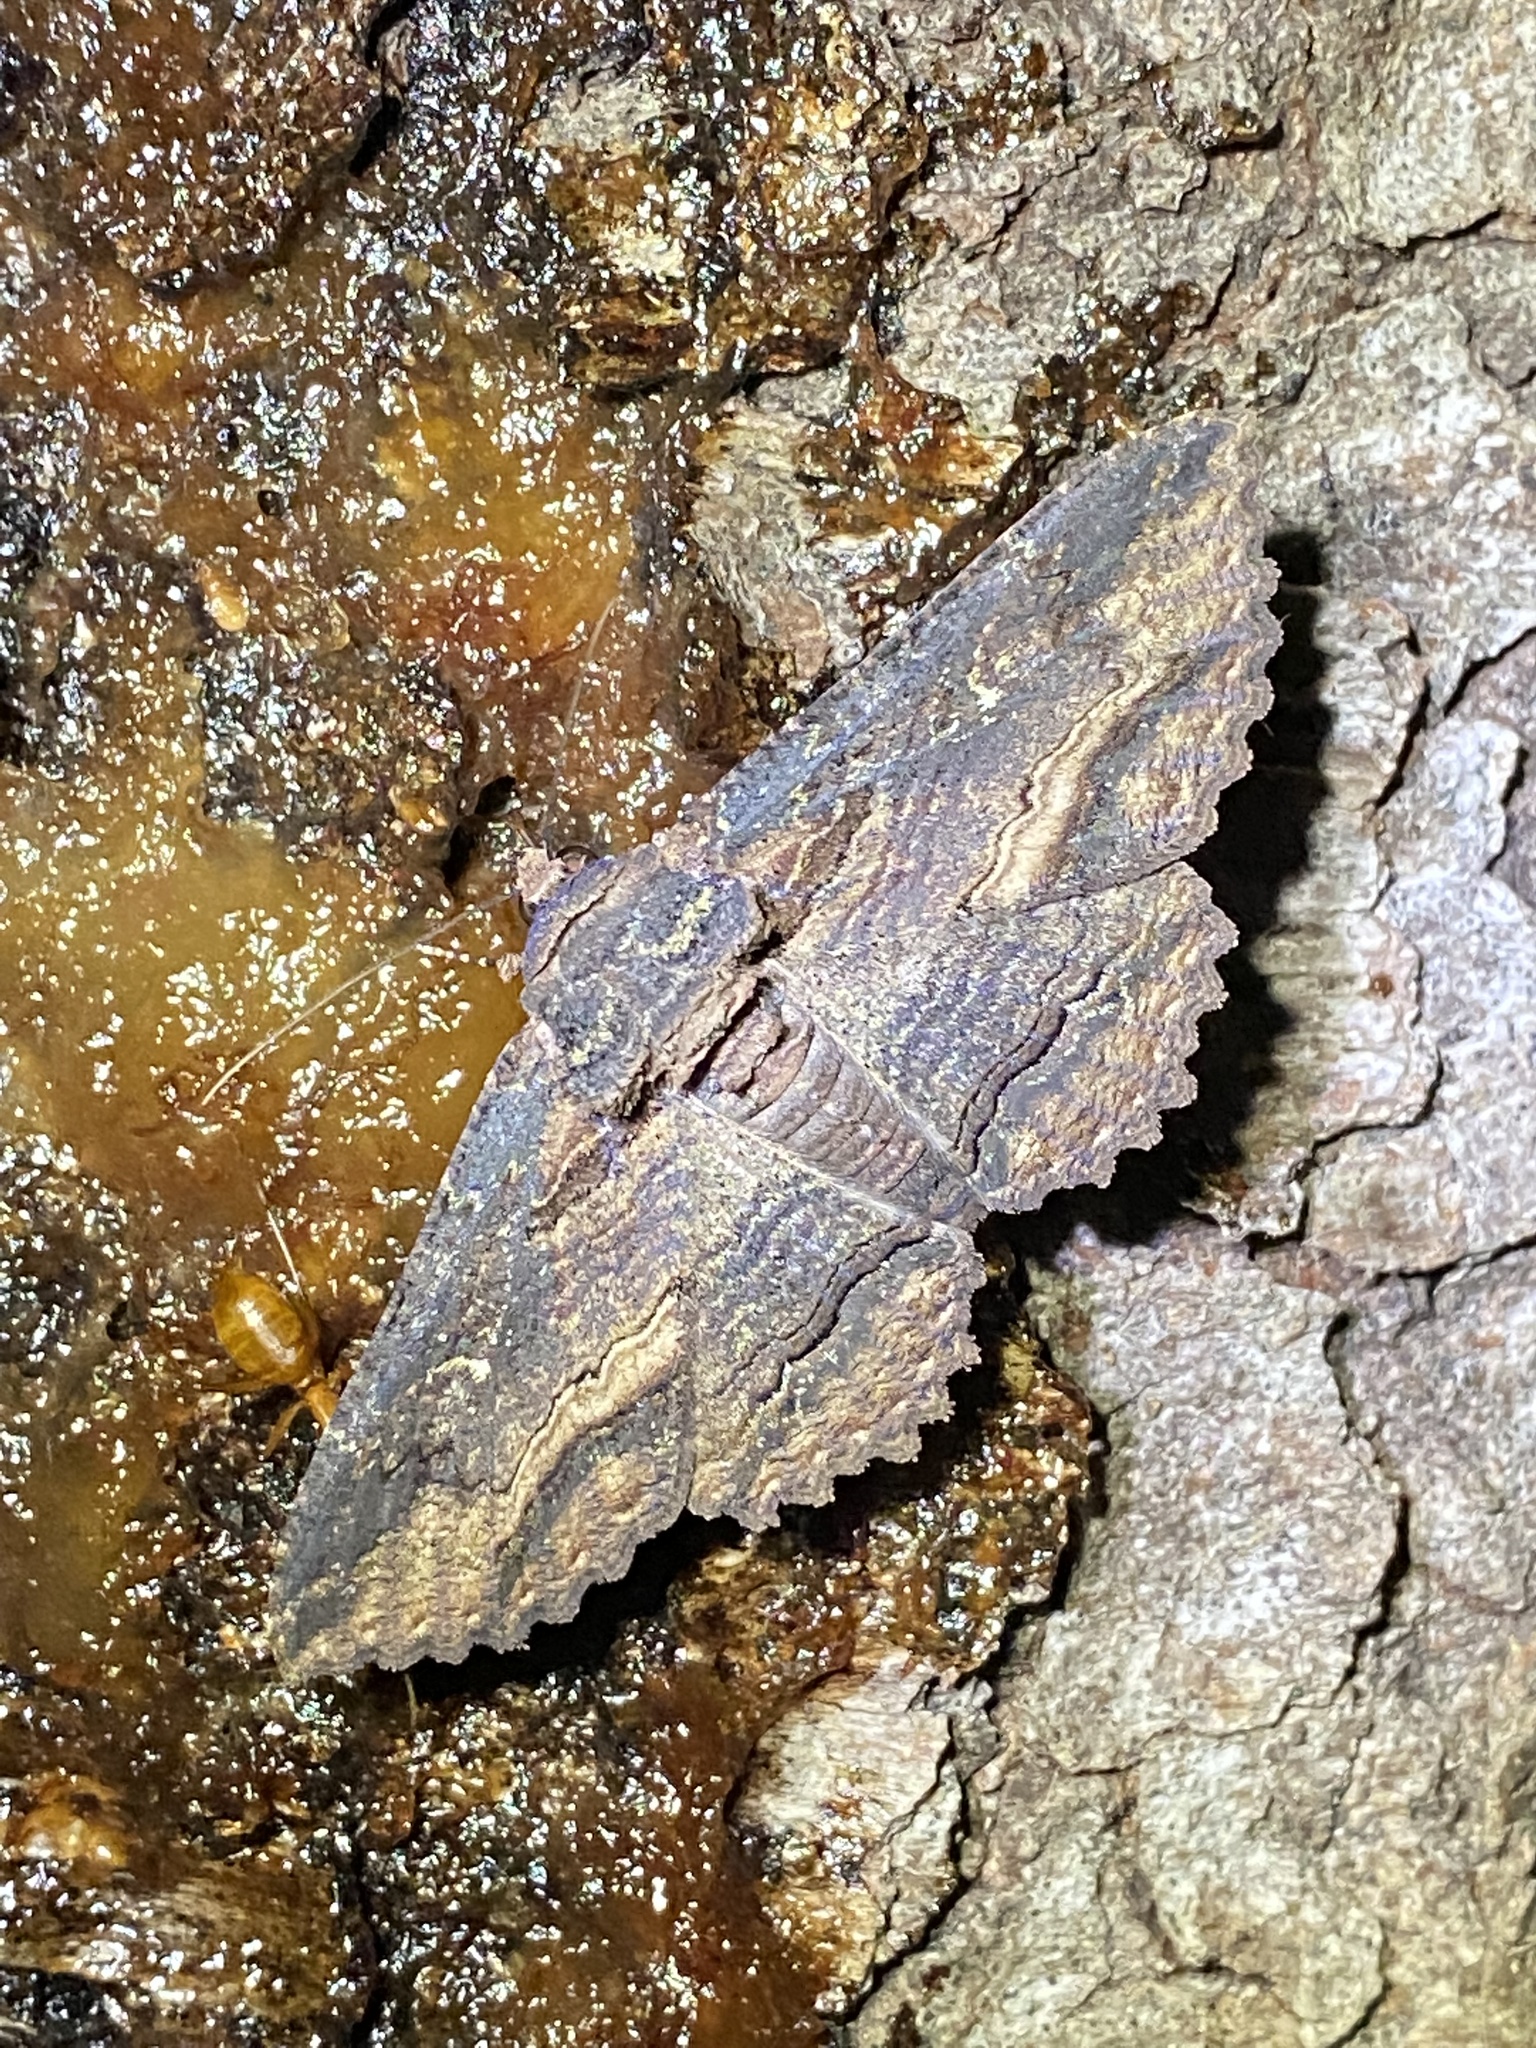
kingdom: Animalia
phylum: Arthropoda
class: Insecta
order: Lepidoptera
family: Erebidae
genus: Zale
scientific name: Zale lunata
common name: Lunate zale moth
